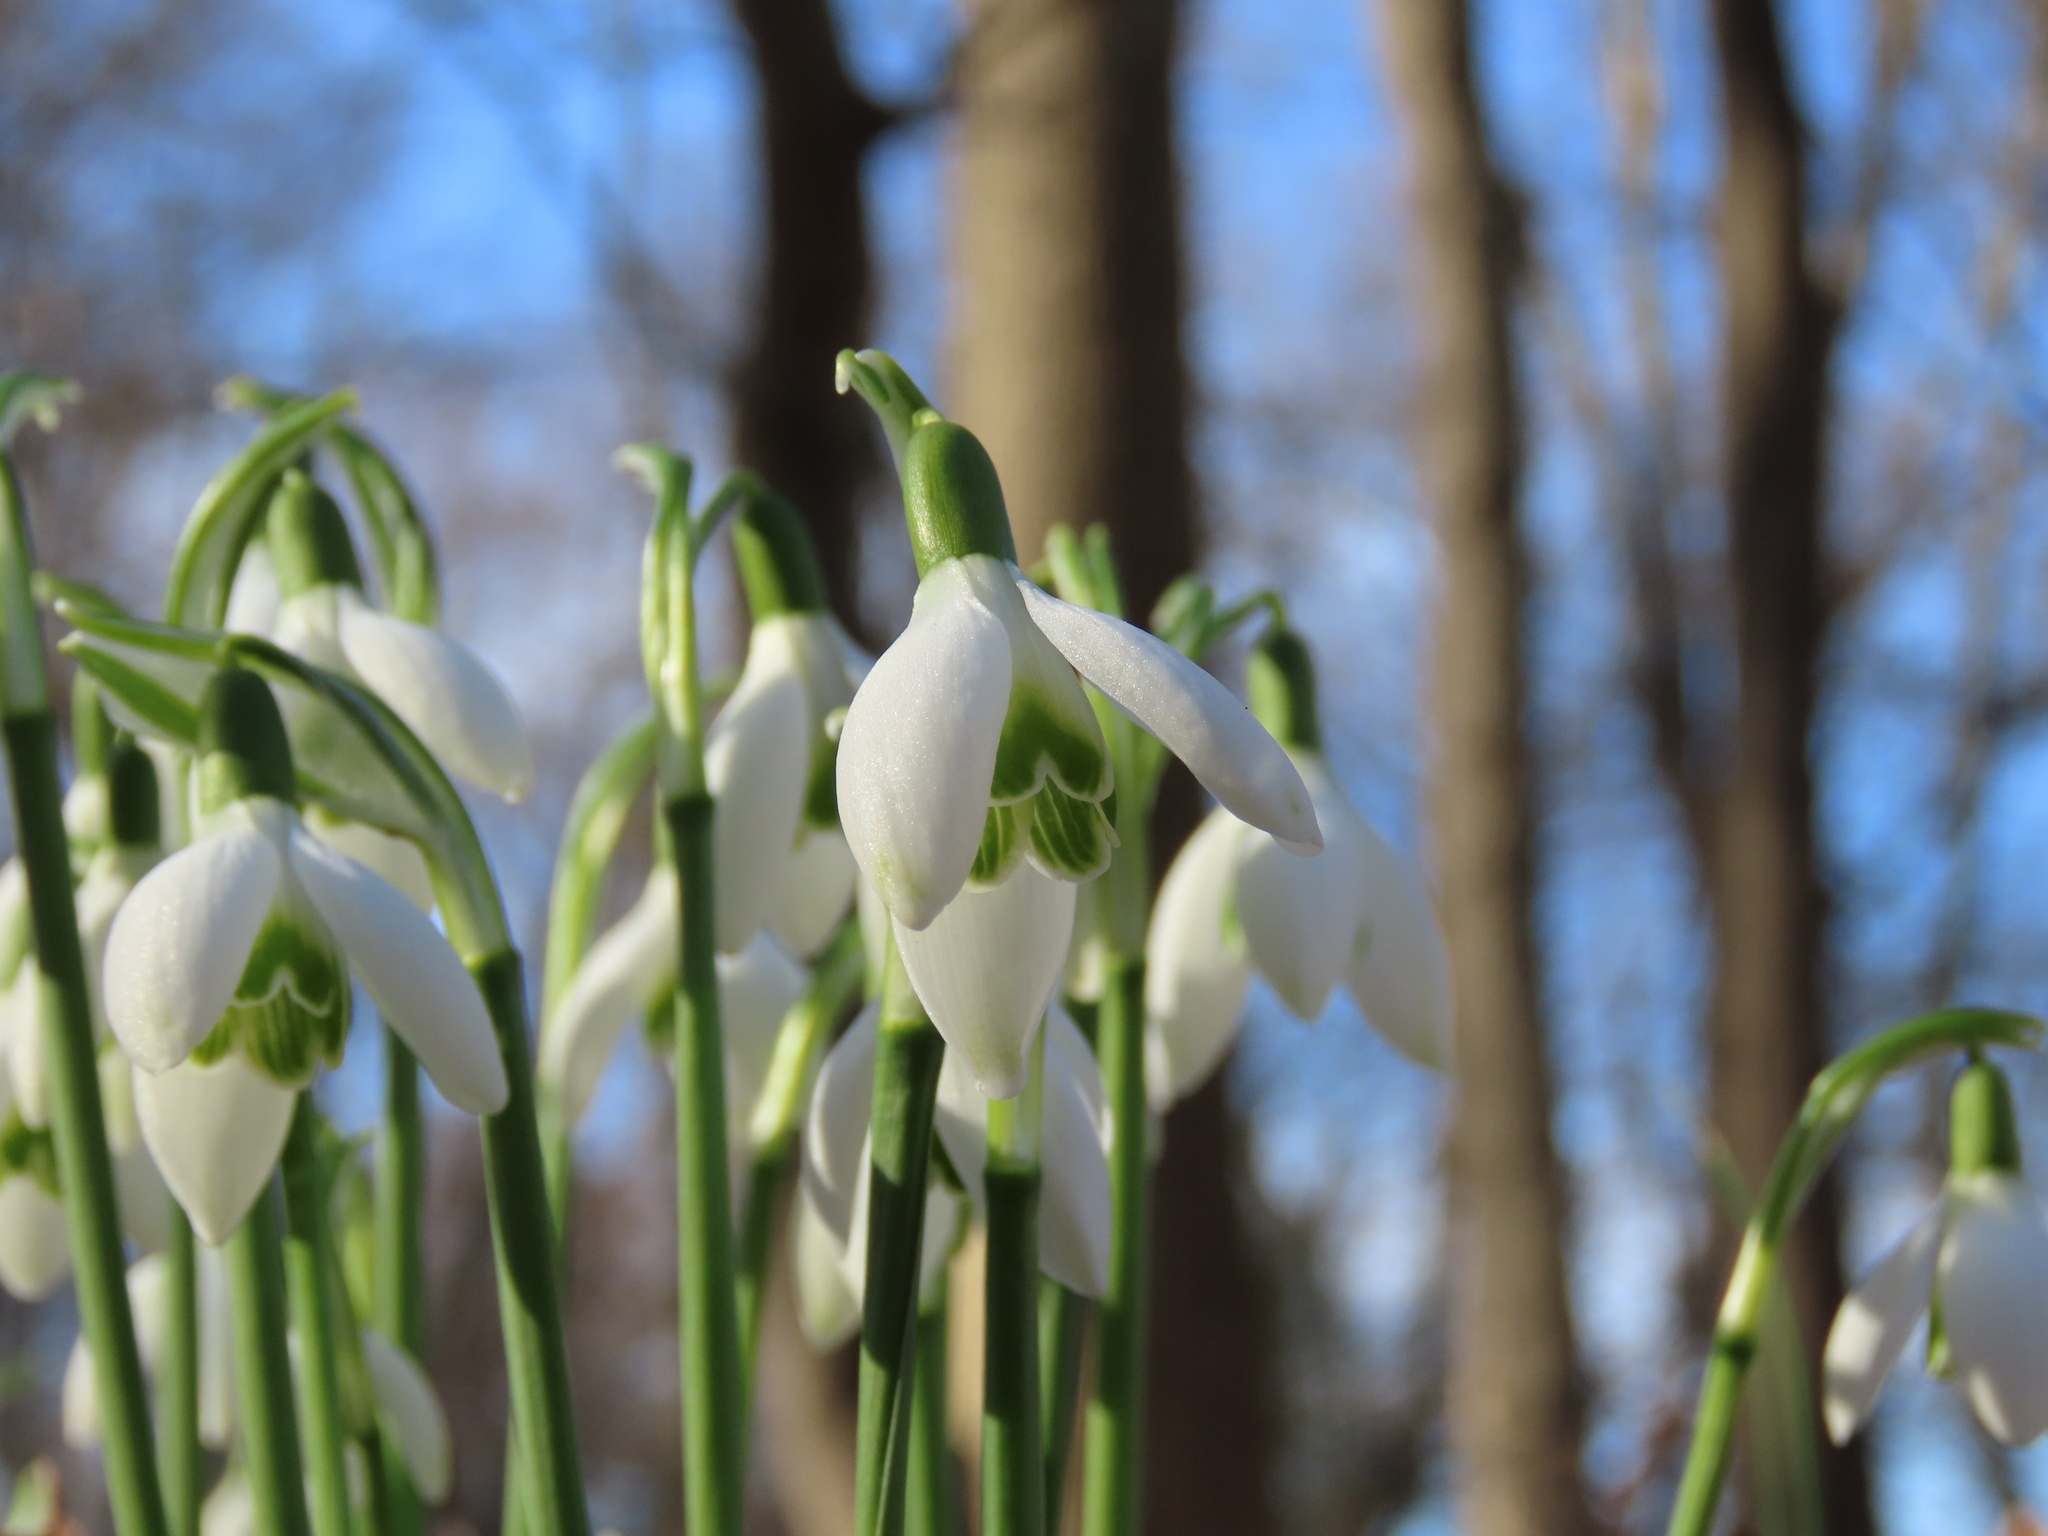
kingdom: Plantae
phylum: Tracheophyta
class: Liliopsida
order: Asparagales
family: Amaryllidaceae
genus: Galanthus
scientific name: Galanthus nivalis
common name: Snowdrop
